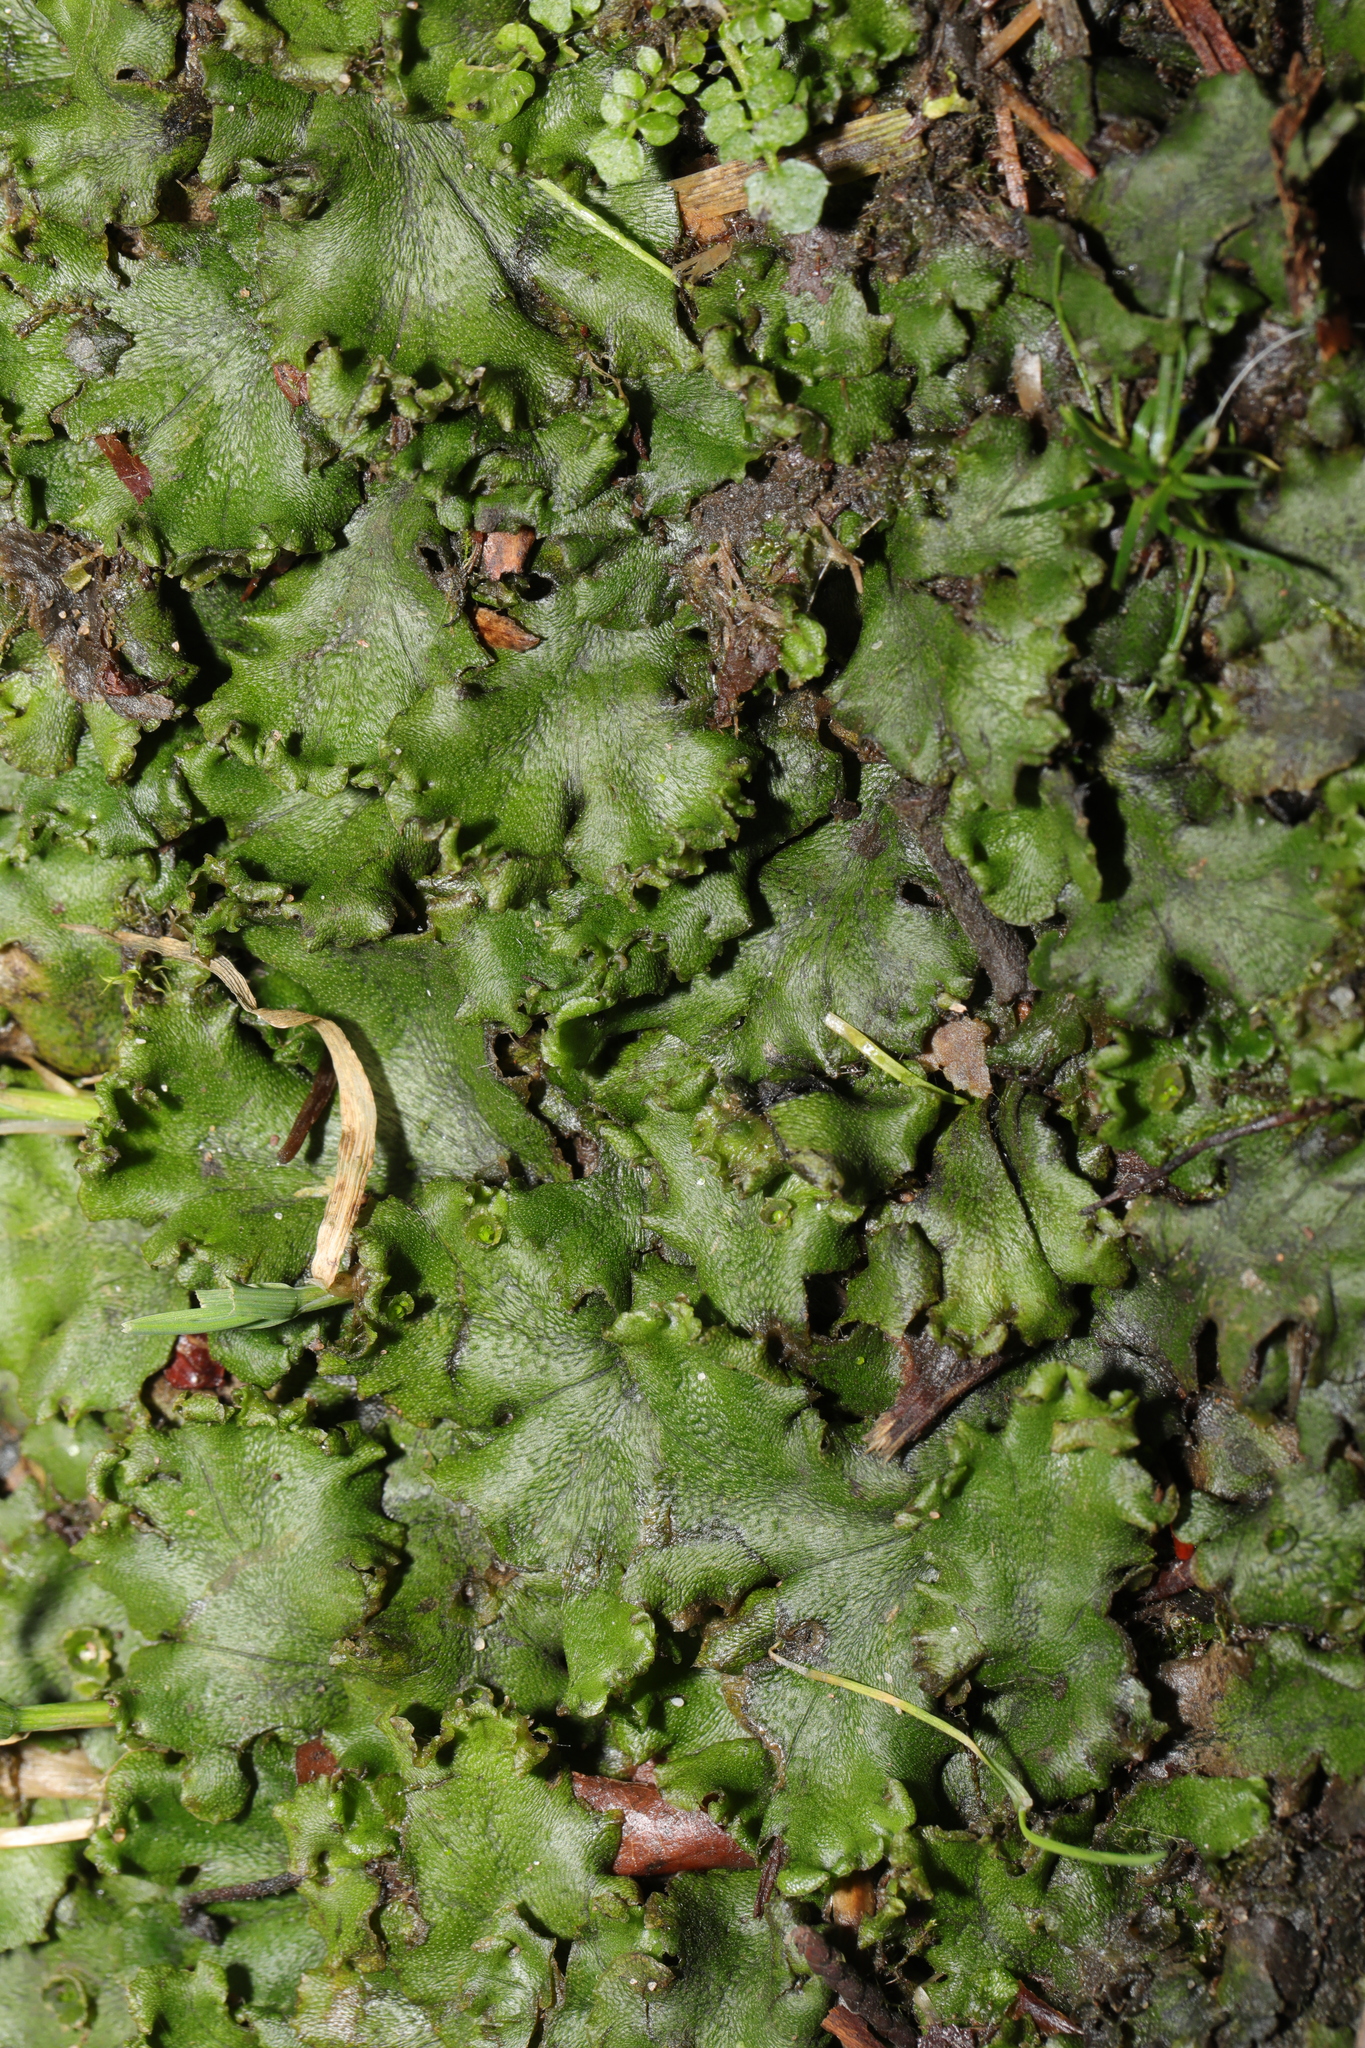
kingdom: Plantae
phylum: Marchantiophyta
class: Marchantiopsida
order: Marchantiales
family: Marchantiaceae
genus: Marchantia
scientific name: Marchantia polymorpha
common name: Common liverwort
